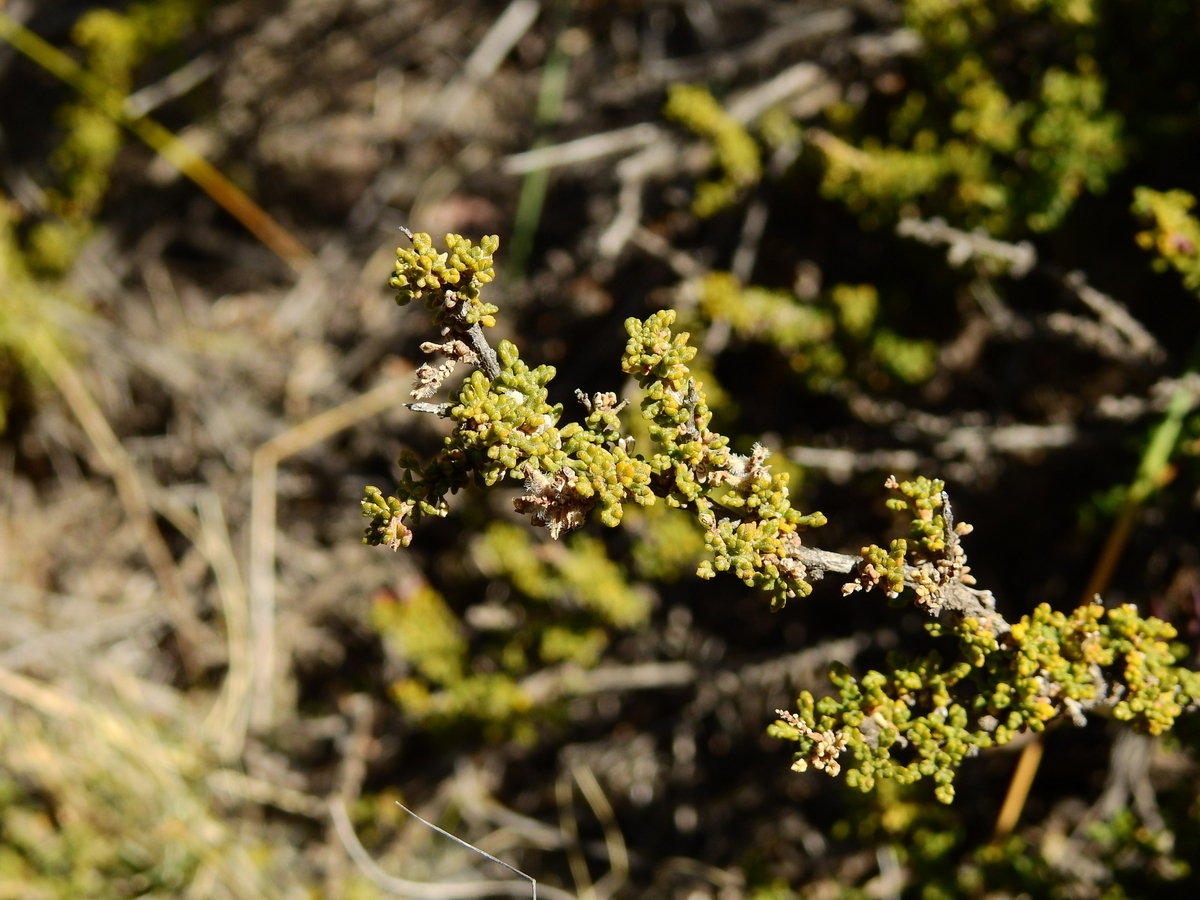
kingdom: Plantae
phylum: Tracheophyta
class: Magnoliopsida
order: Lamiales
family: Verbenaceae
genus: Acantholippia
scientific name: Acantholippia seriphioides
